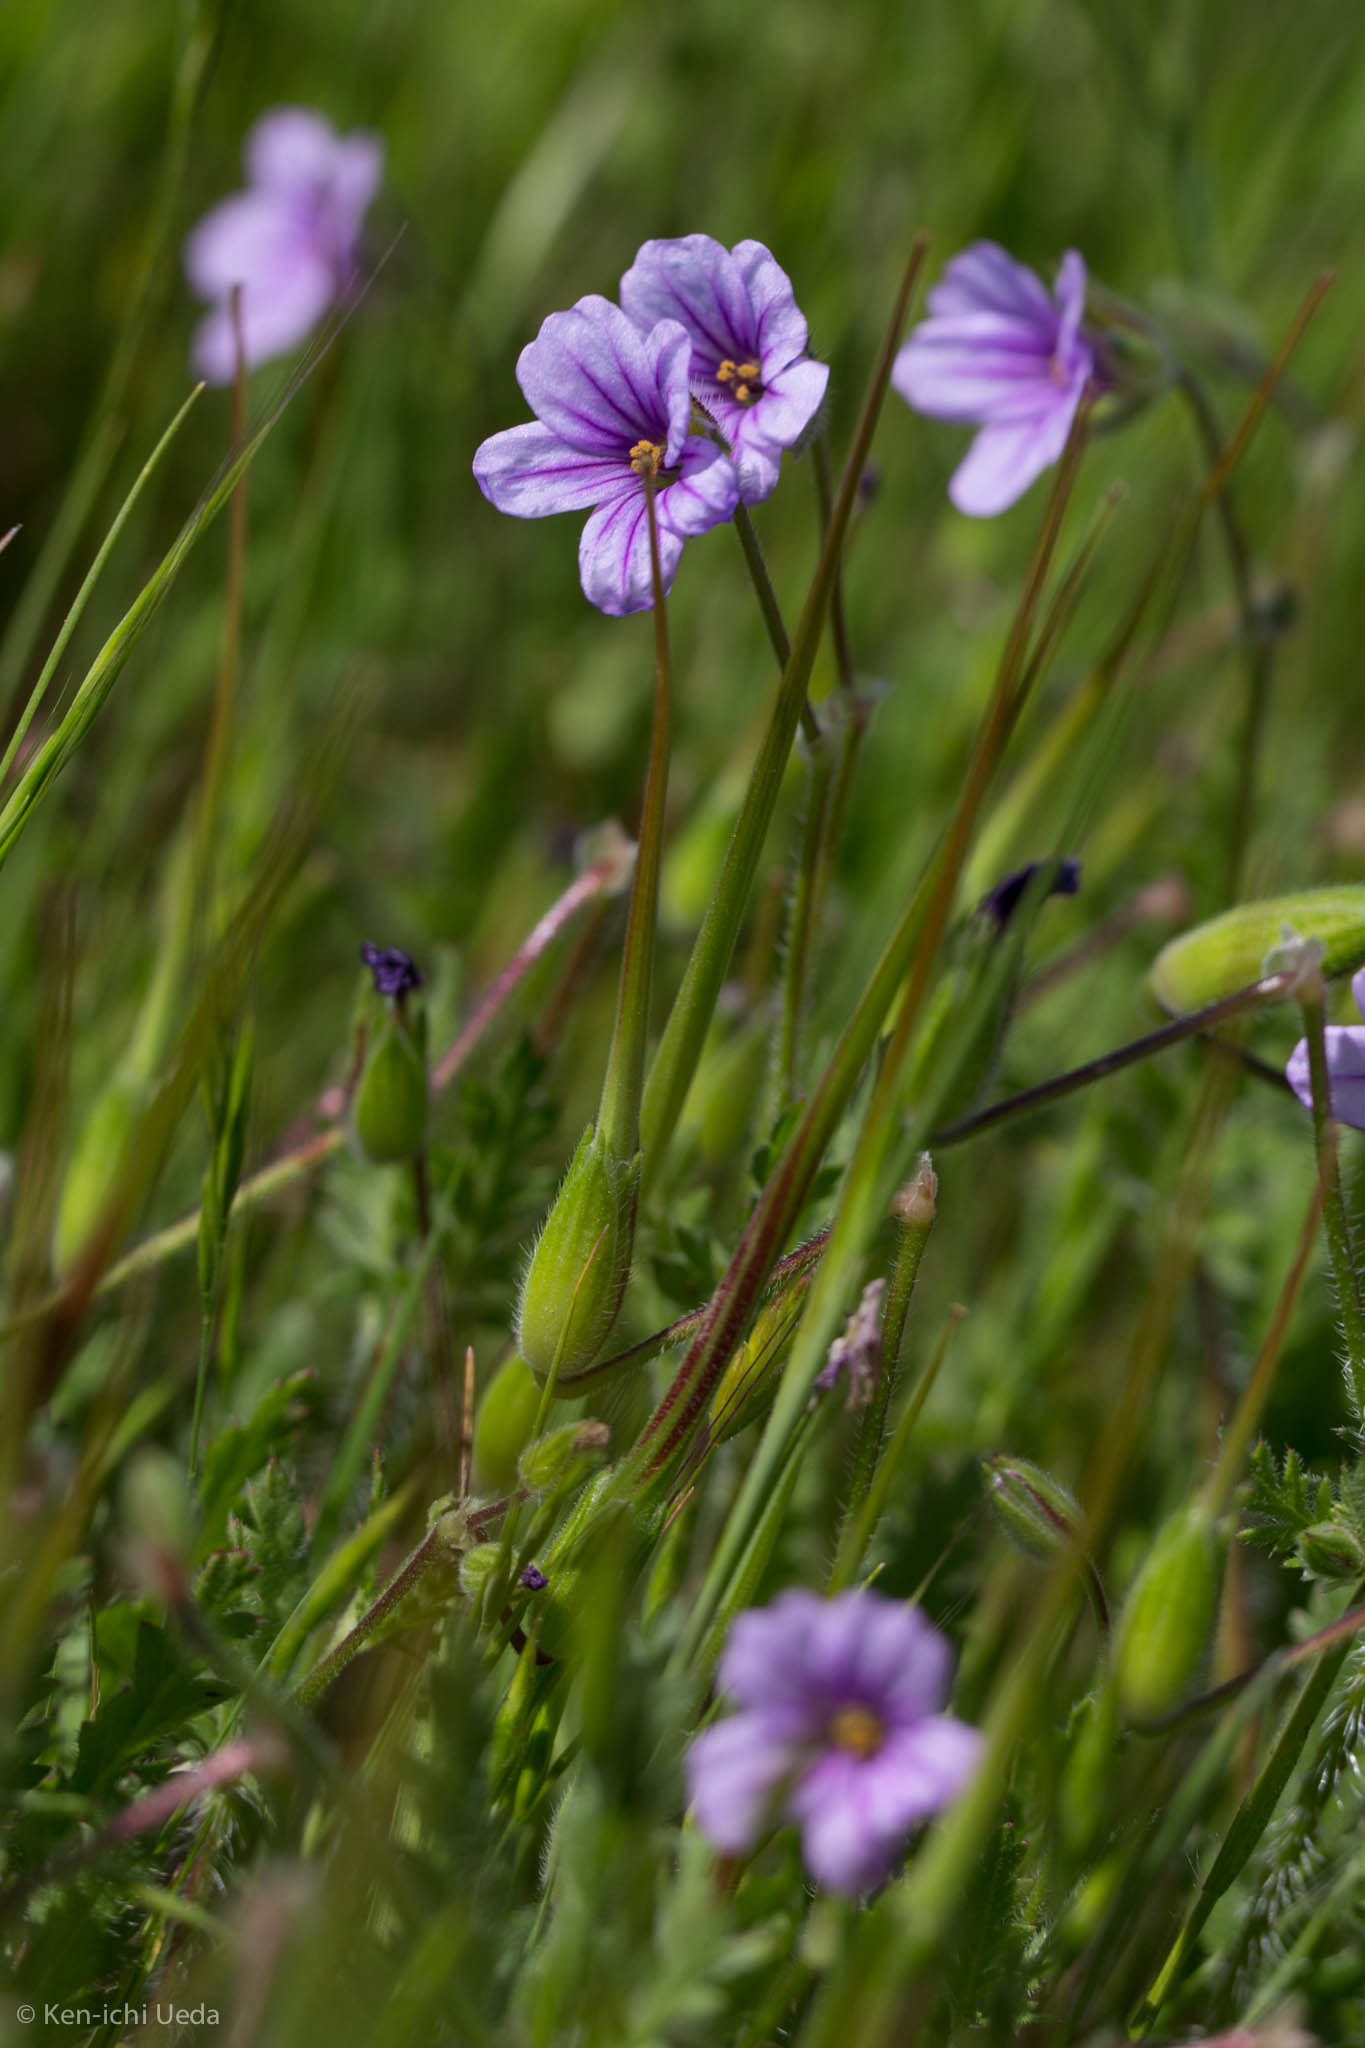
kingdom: Plantae
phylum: Tracheophyta
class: Magnoliopsida
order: Geraniales
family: Geraniaceae
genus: Erodium
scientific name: Erodium botrys
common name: Mediterranean stork's-bill
